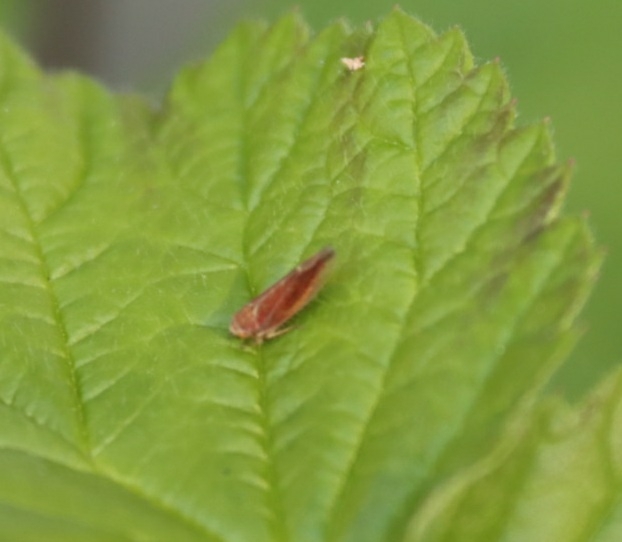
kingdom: Animalia
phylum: Arthropoda
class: Insecta
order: Hemiptera
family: Cicadellidae
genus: Idiodonus
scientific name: Idiodonus cruentatus
